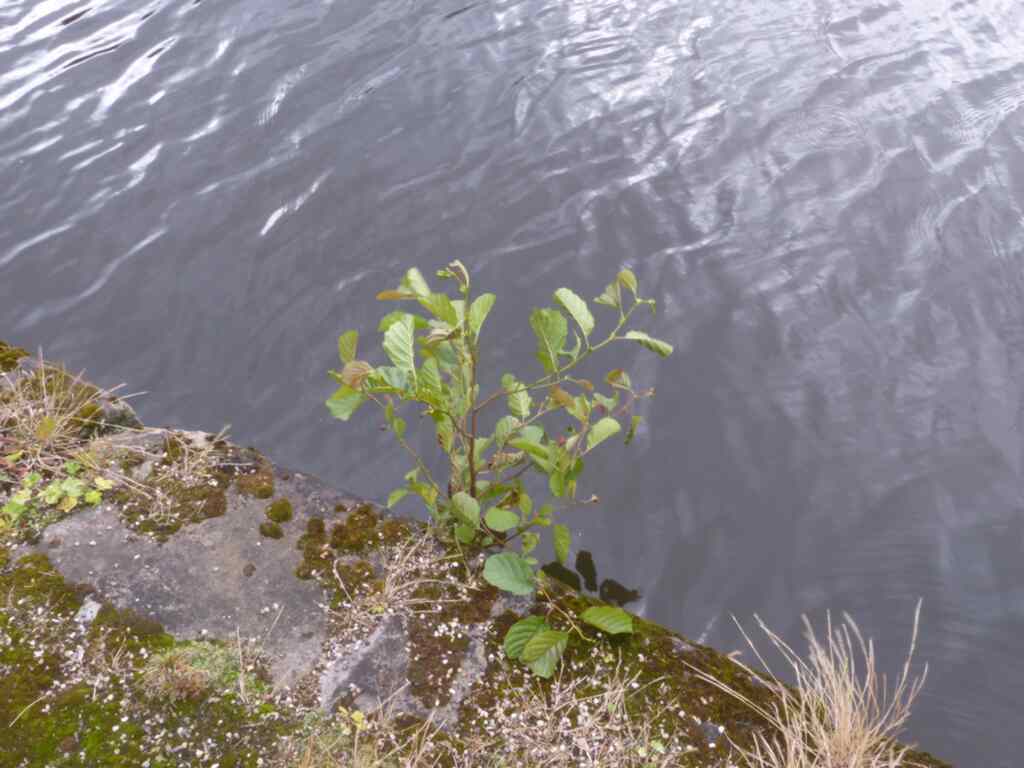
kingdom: Plantae
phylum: Tracheophyta
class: Magnoliopsida
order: Fagales
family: Betulaceae
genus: Alnus
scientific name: Alnus glutinosa
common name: Black alder
